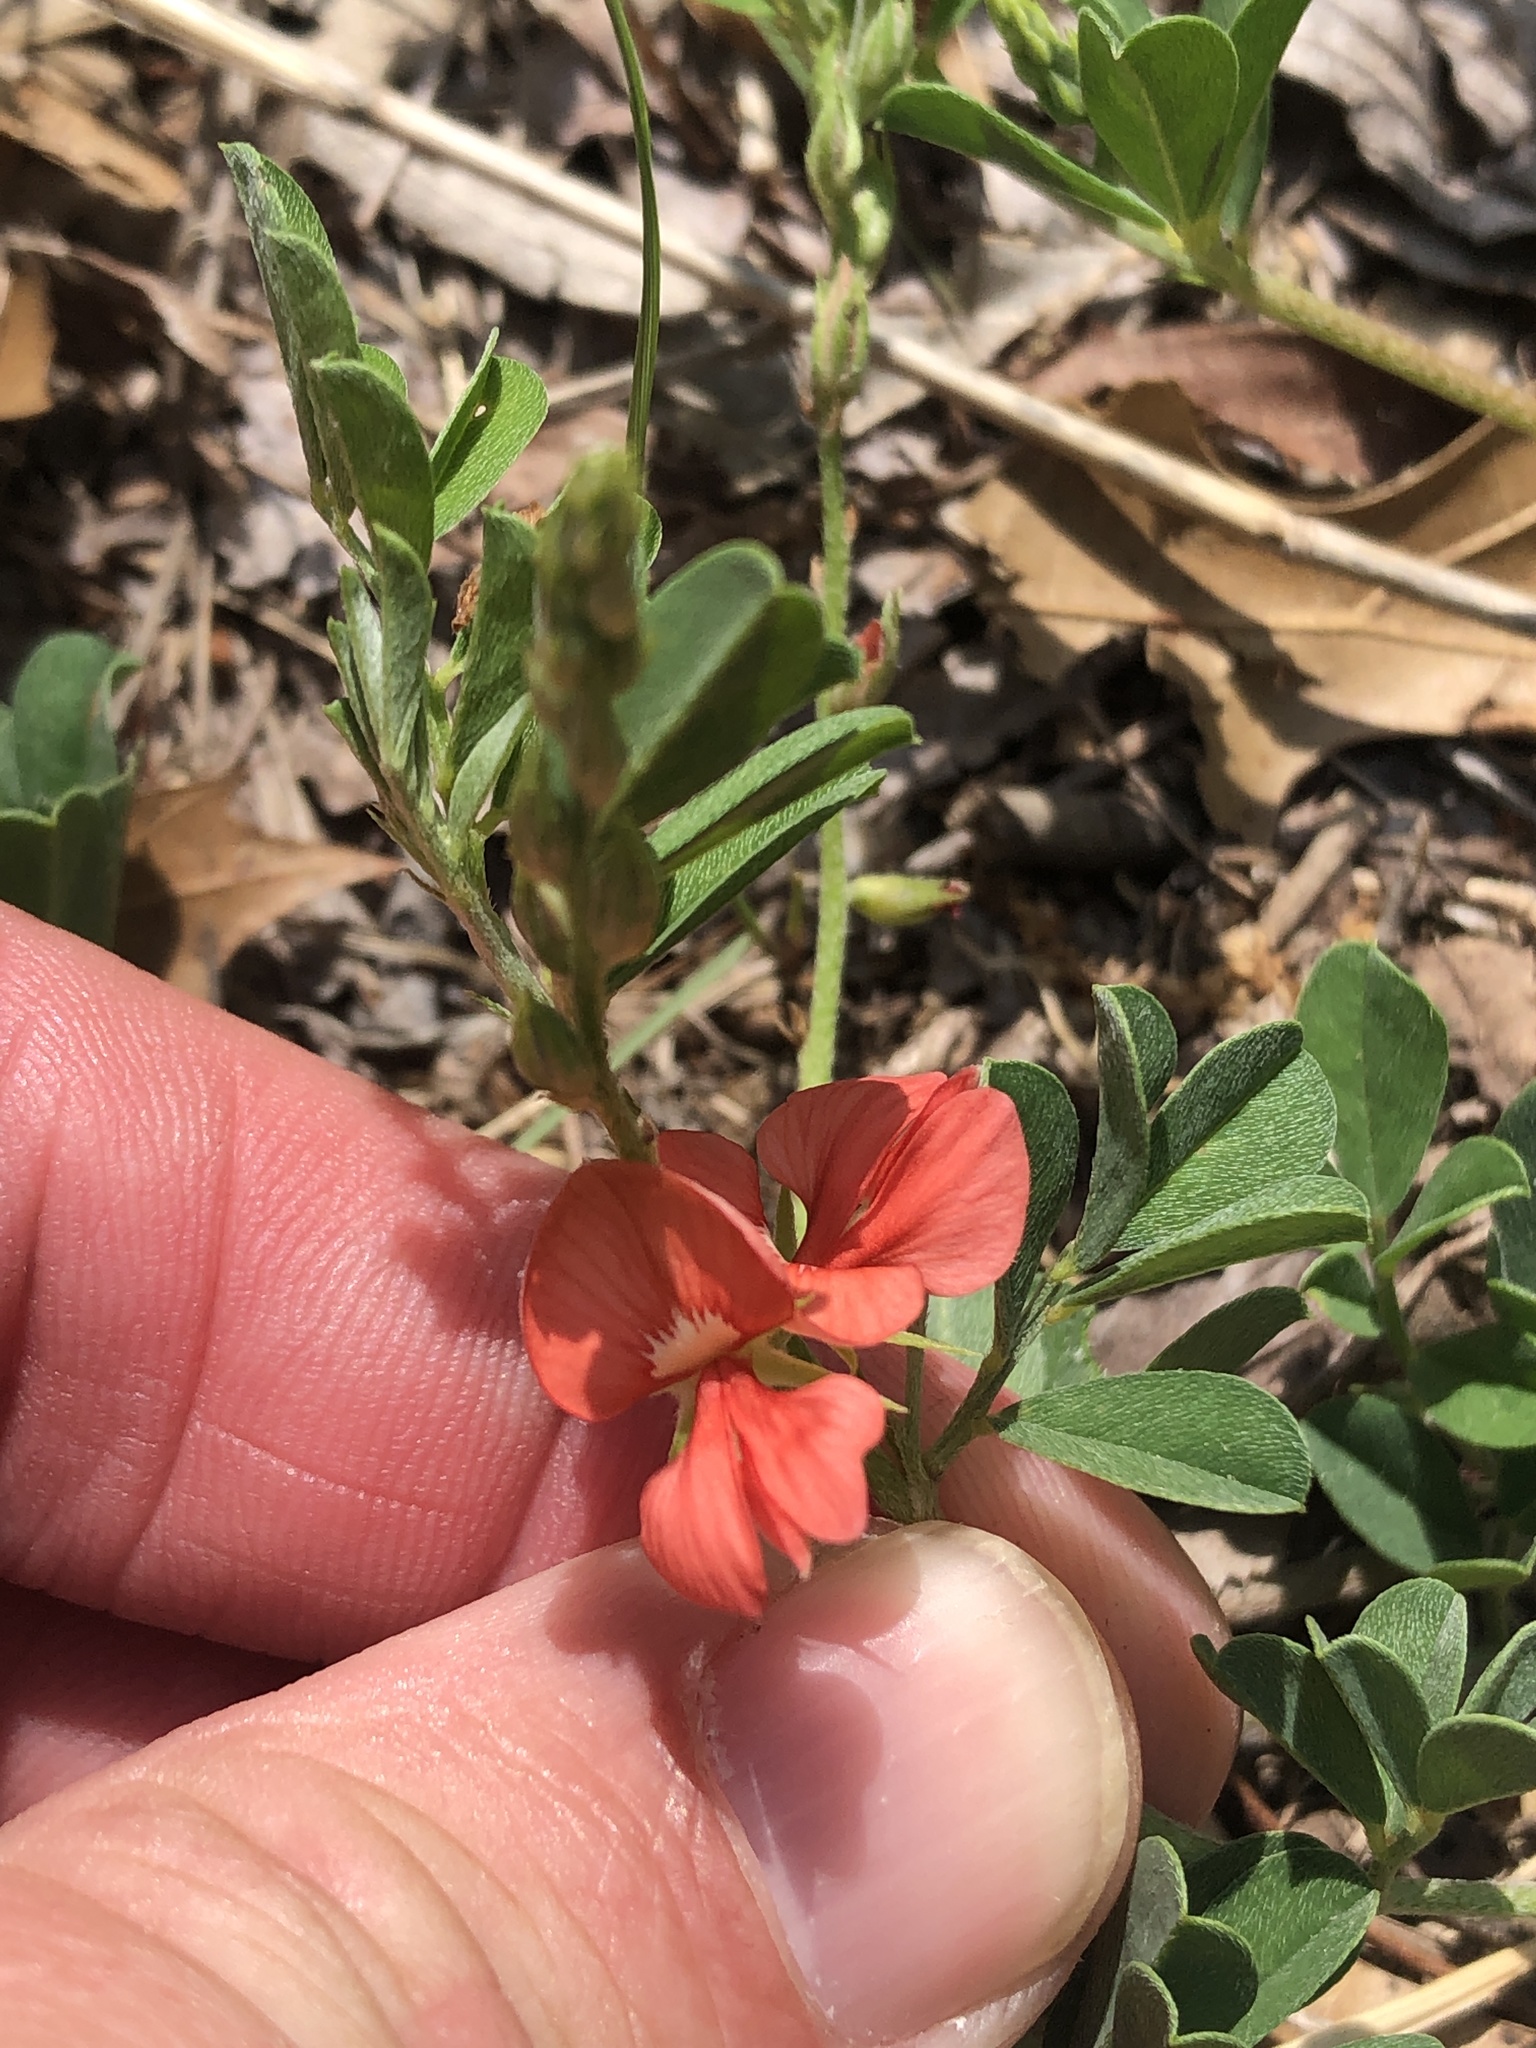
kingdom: Plantae
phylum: Tracheophyta
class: Magnoliopsida
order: Fabales
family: Fabaceae
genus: Indigofera
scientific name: Indigofera miniata
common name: Coast indigo
